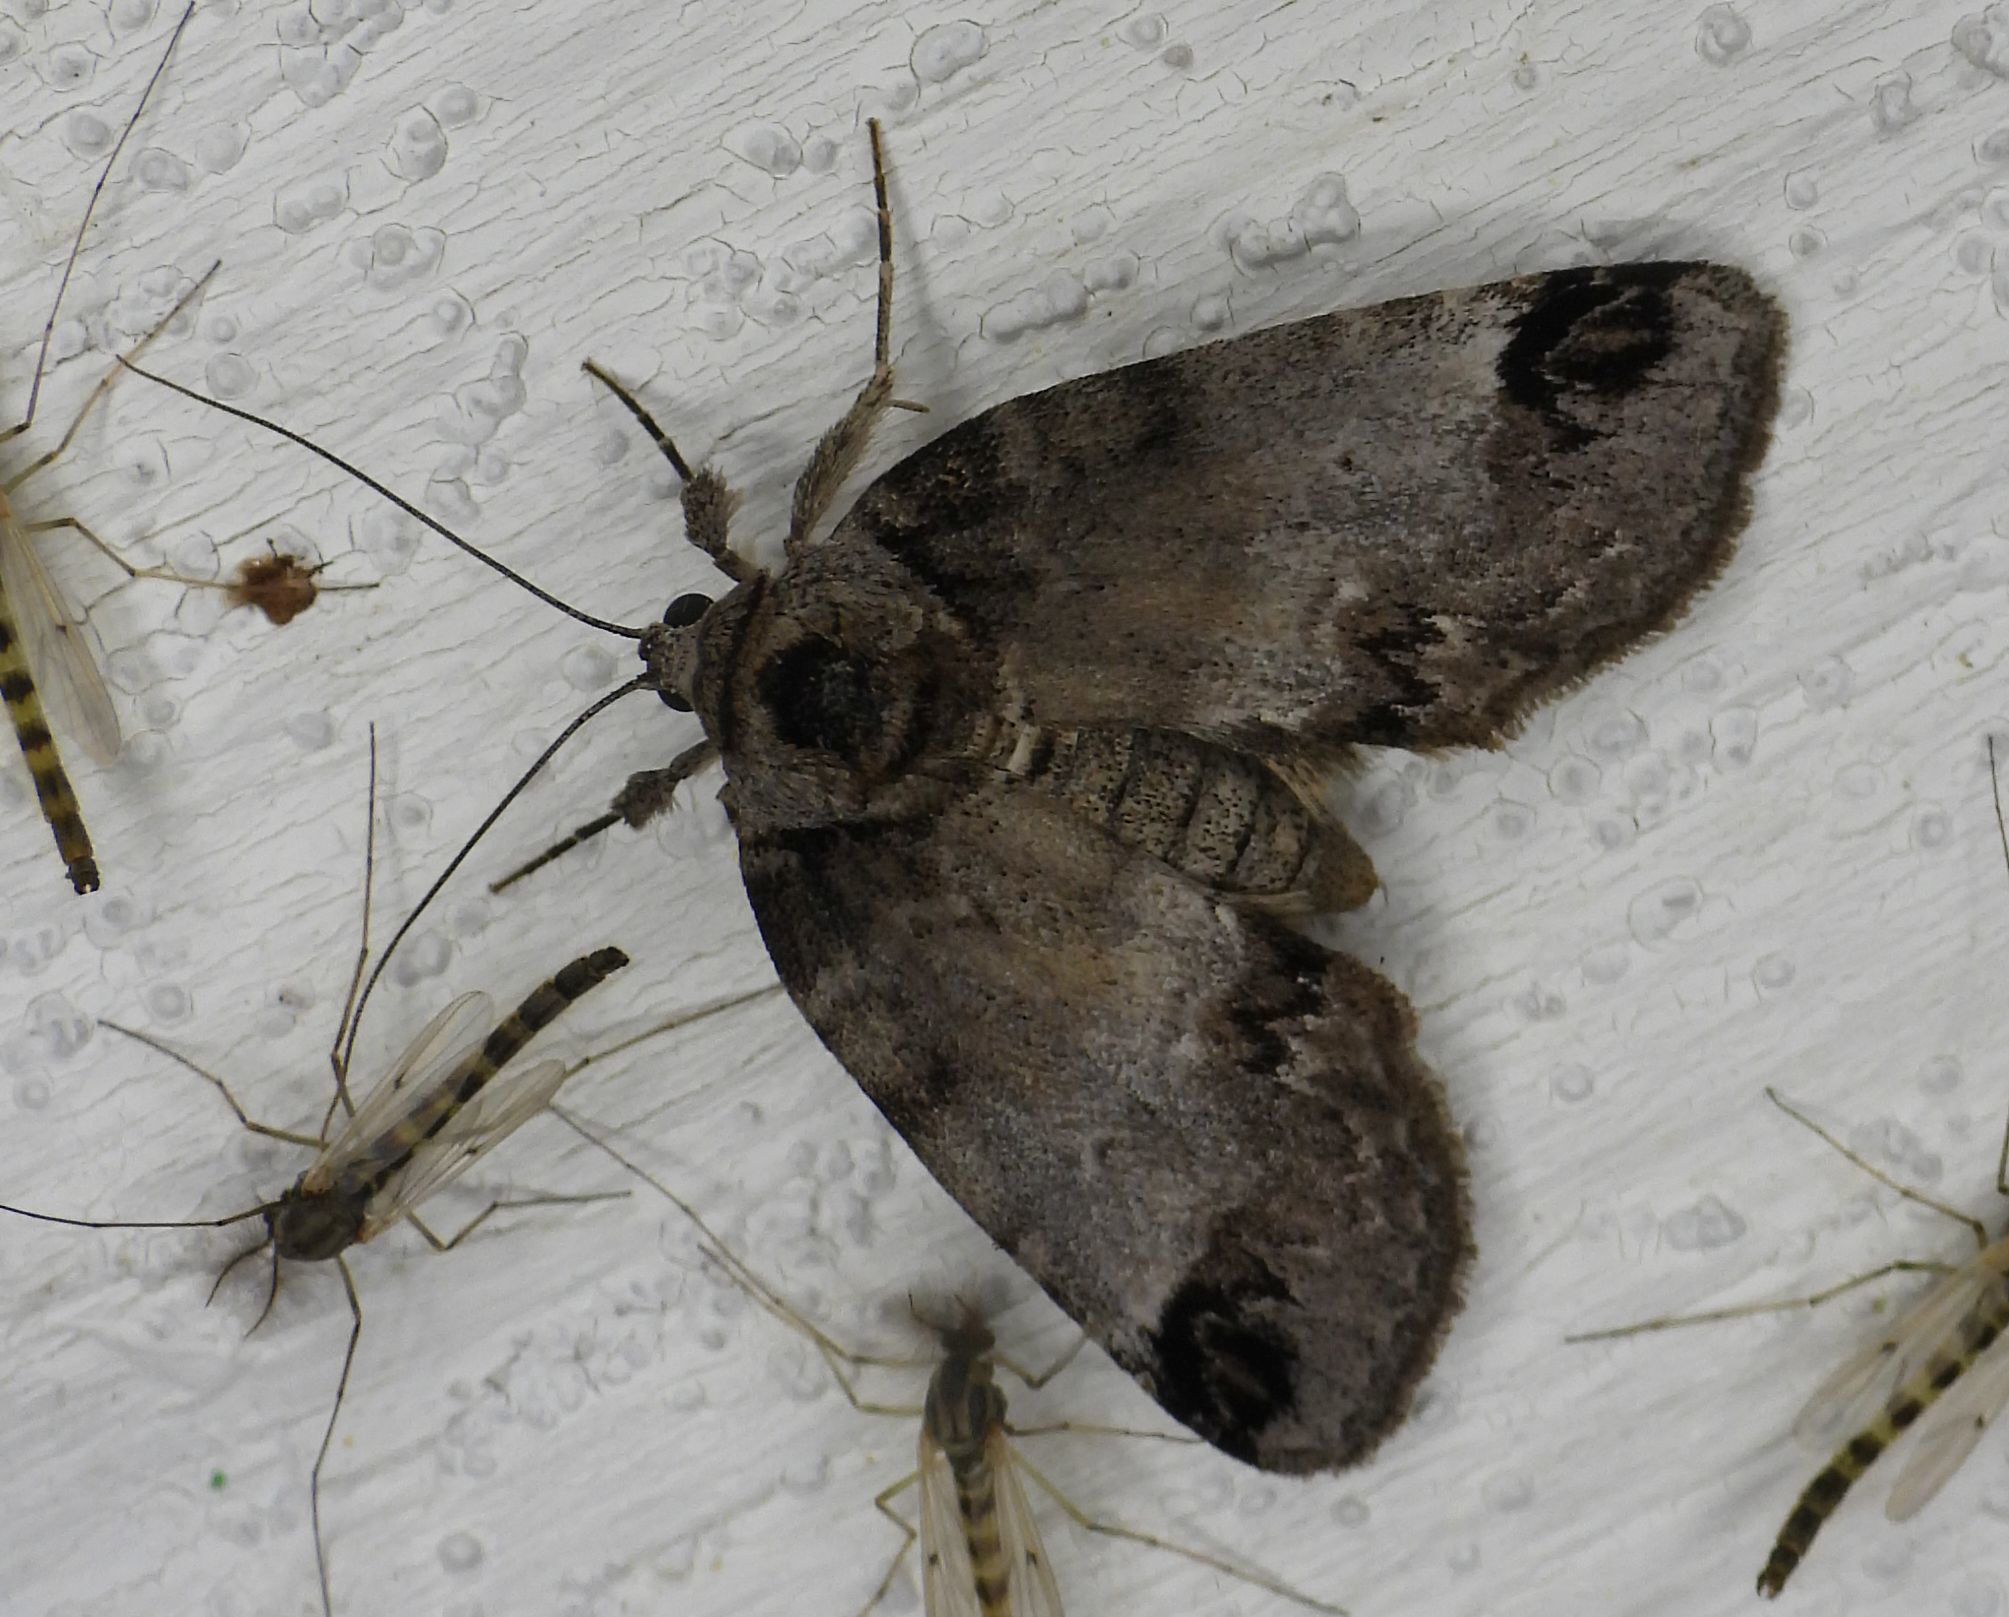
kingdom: Animalia
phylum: Arthropoda
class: Insecta
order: Lepidoptera
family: Nolidae
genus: Baileya
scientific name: Baileya dormitans
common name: Sleeping baileya moth
